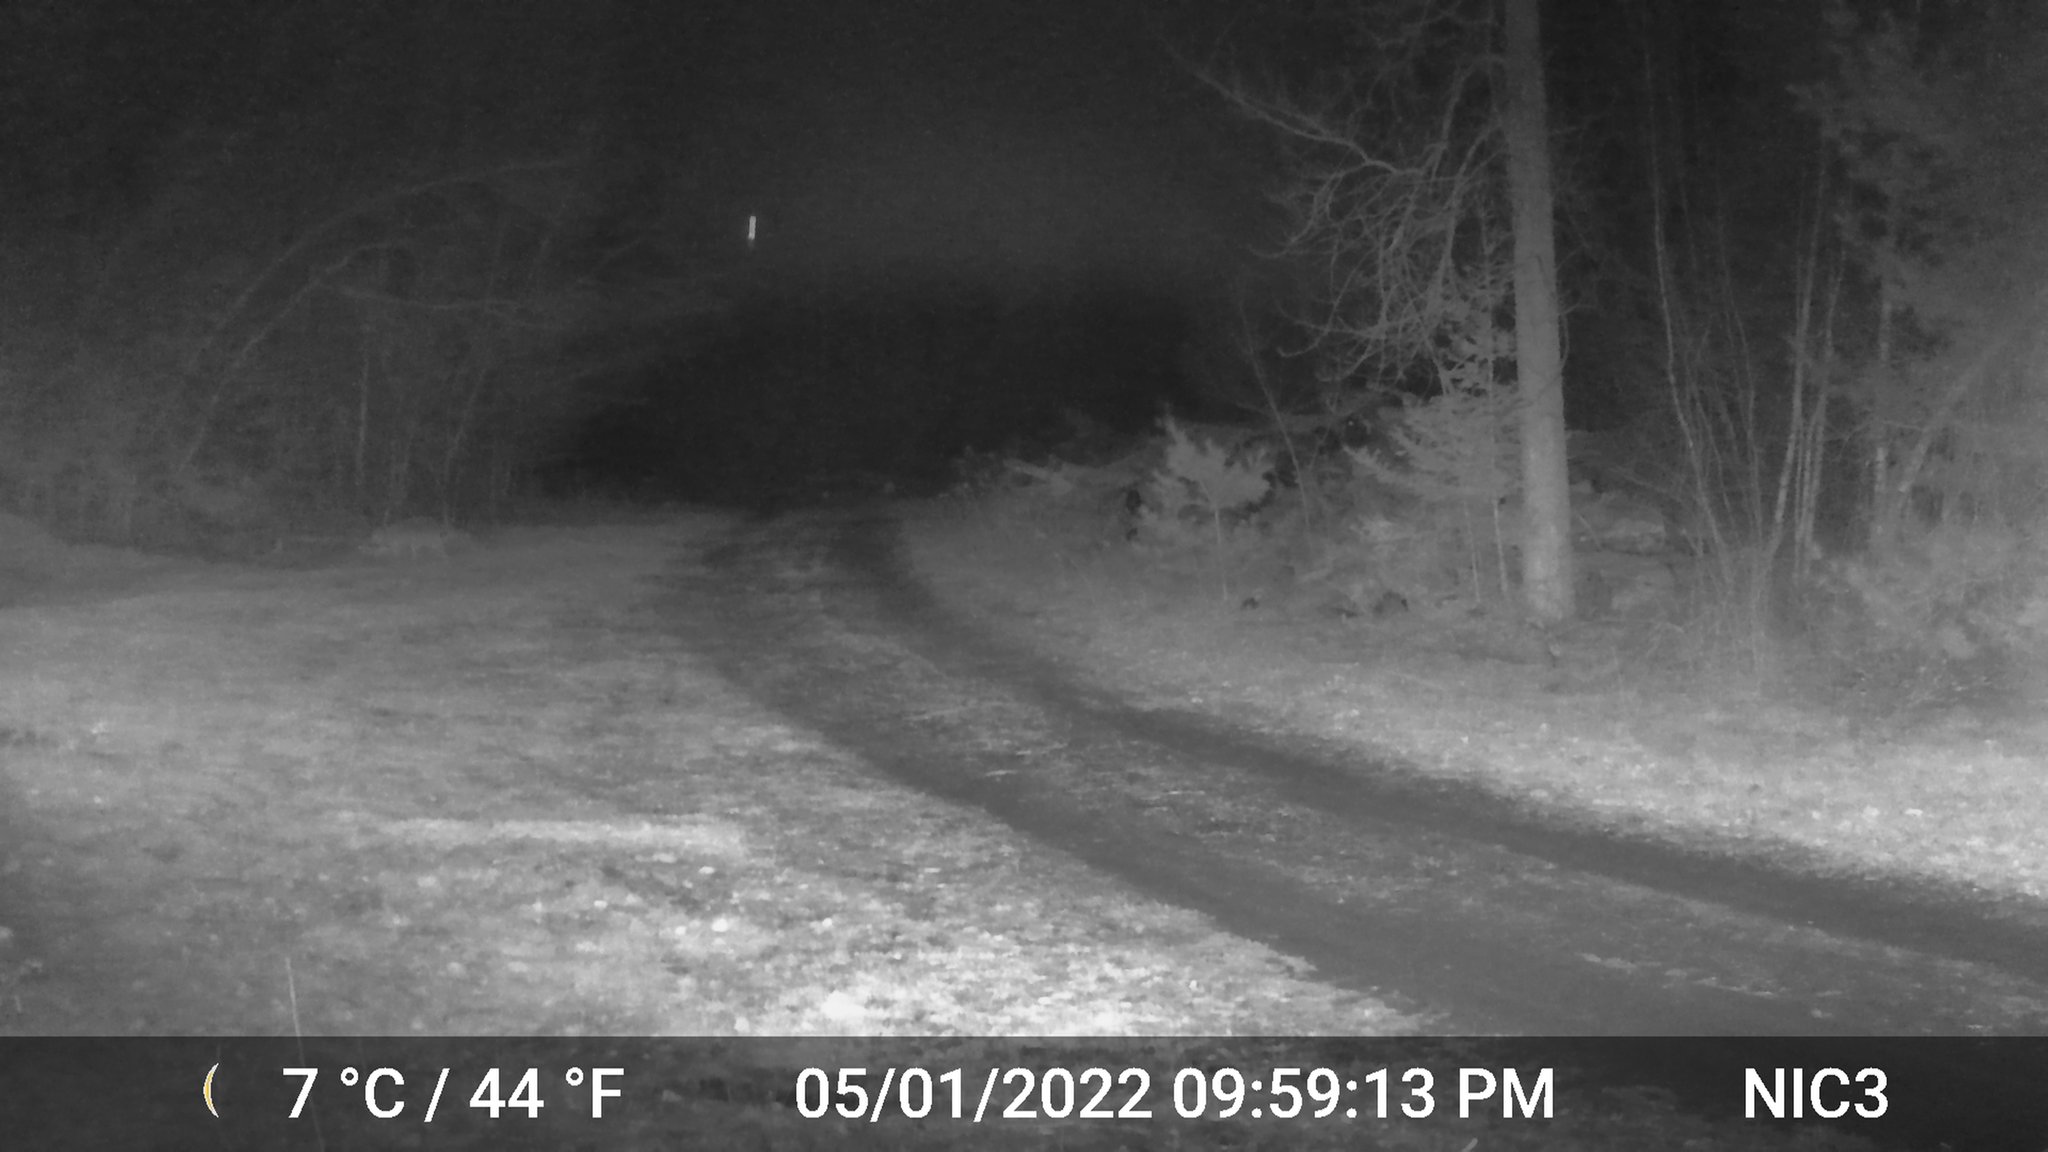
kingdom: Animalia
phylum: Chordata
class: Mammalia
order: Carnivora
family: Canidae
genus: Canis
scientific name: Canis latrans
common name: Coyote
